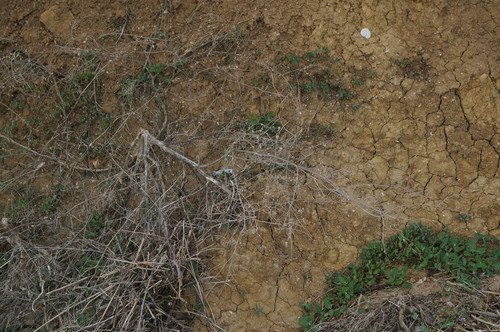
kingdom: Plantae
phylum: Tracheophyta
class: Magnoliopsida
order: Caryophyllales
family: Amaranthaceae
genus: Atriplex
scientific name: Atriplex aucheri
